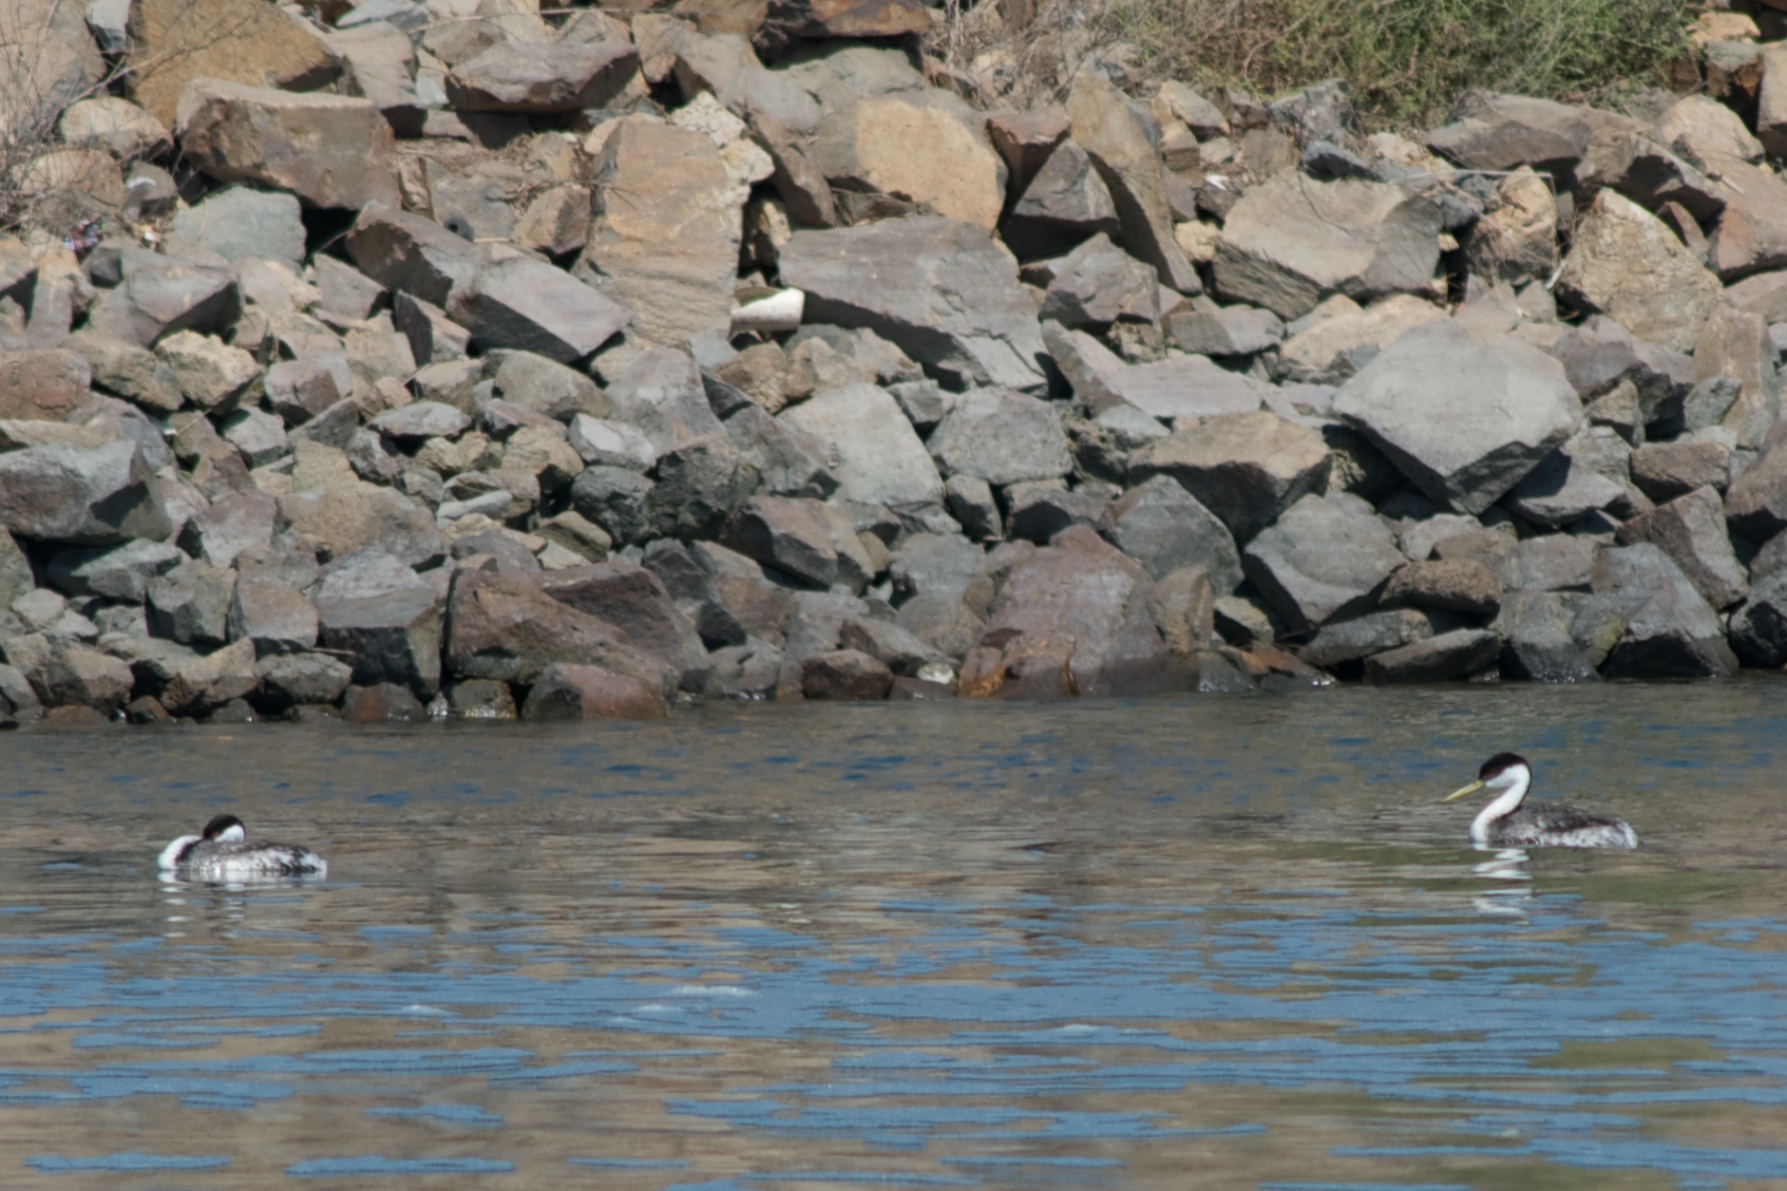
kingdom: Animalia
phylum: Chordata
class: Aves
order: Podicipediformes
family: Podicipedidae
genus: Aechmophorus
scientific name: Aechmophorus occidentalis
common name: Western grebe
